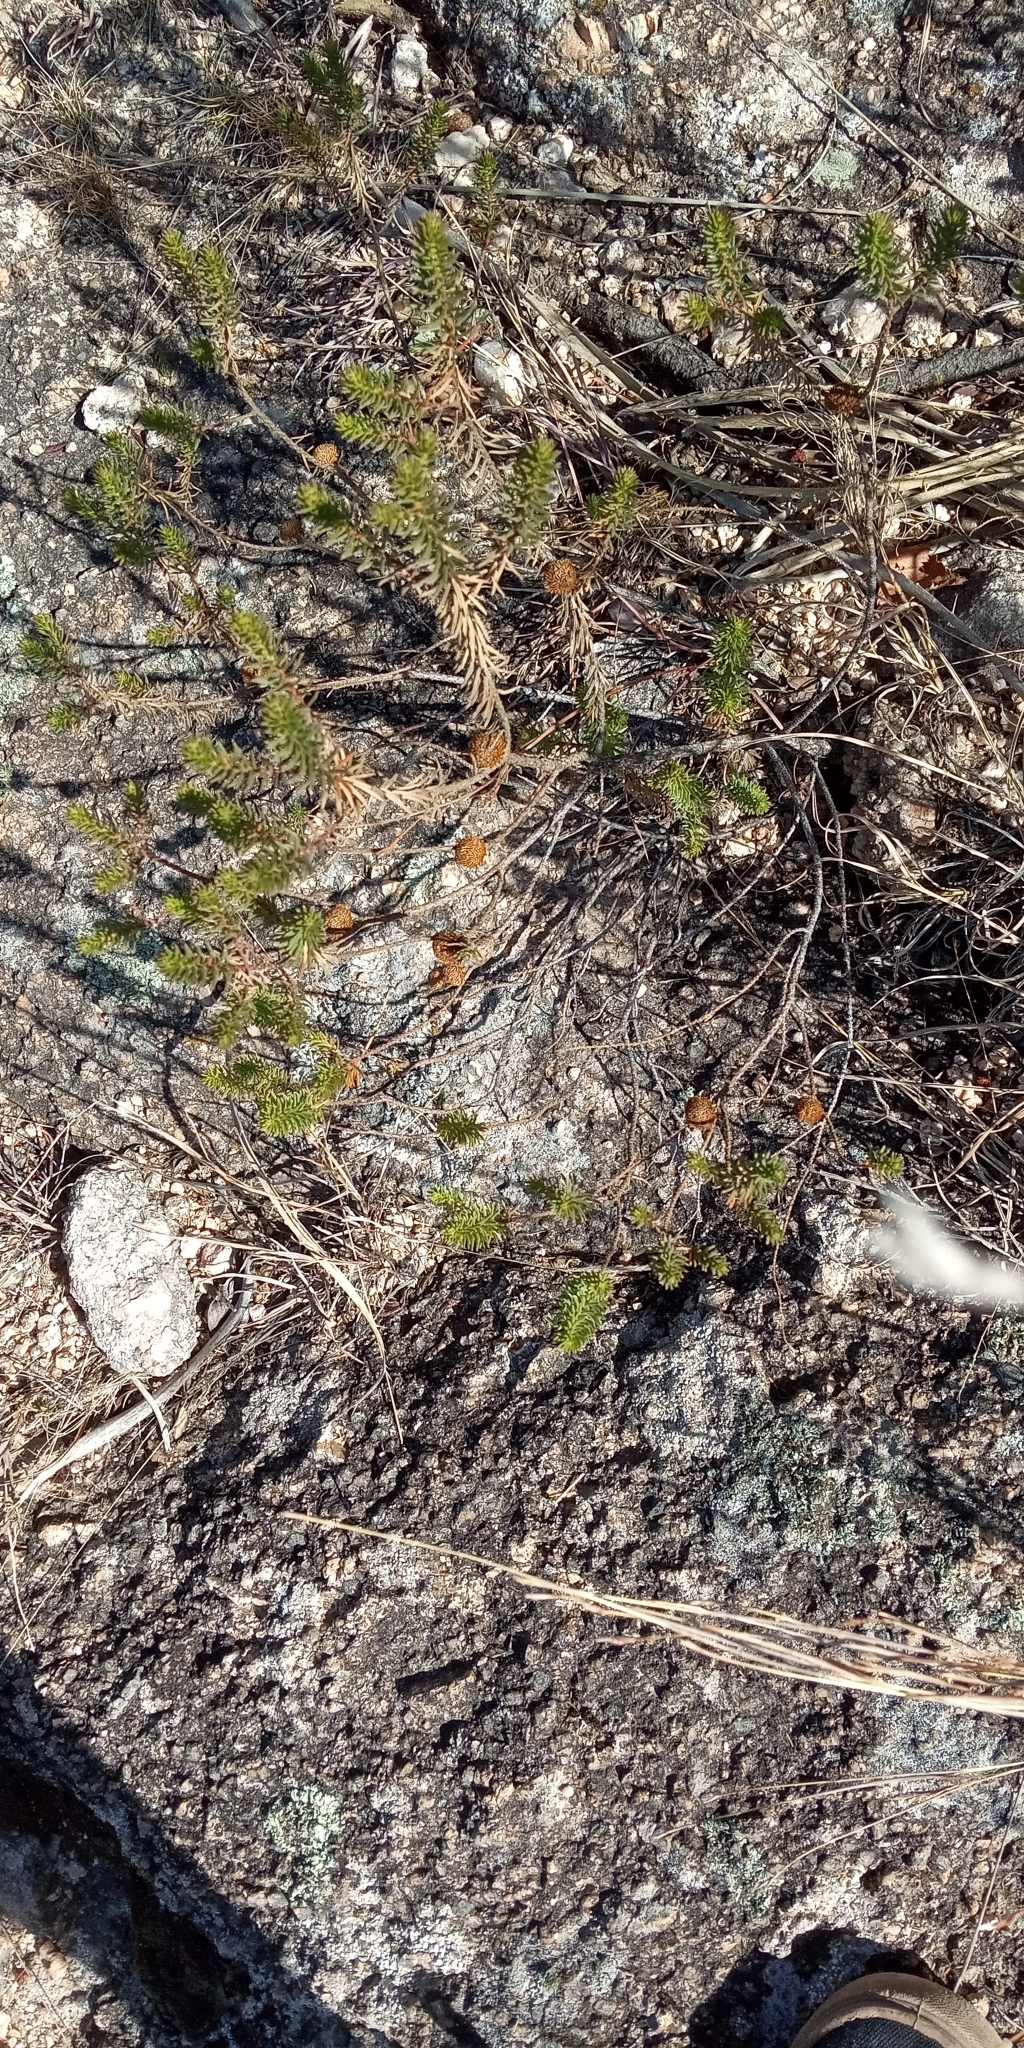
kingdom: Plantae
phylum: Tracheophyta
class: Magnoliopsida
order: Asterales
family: Asteraceae
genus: Baccharis
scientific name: Baccharis aliena
